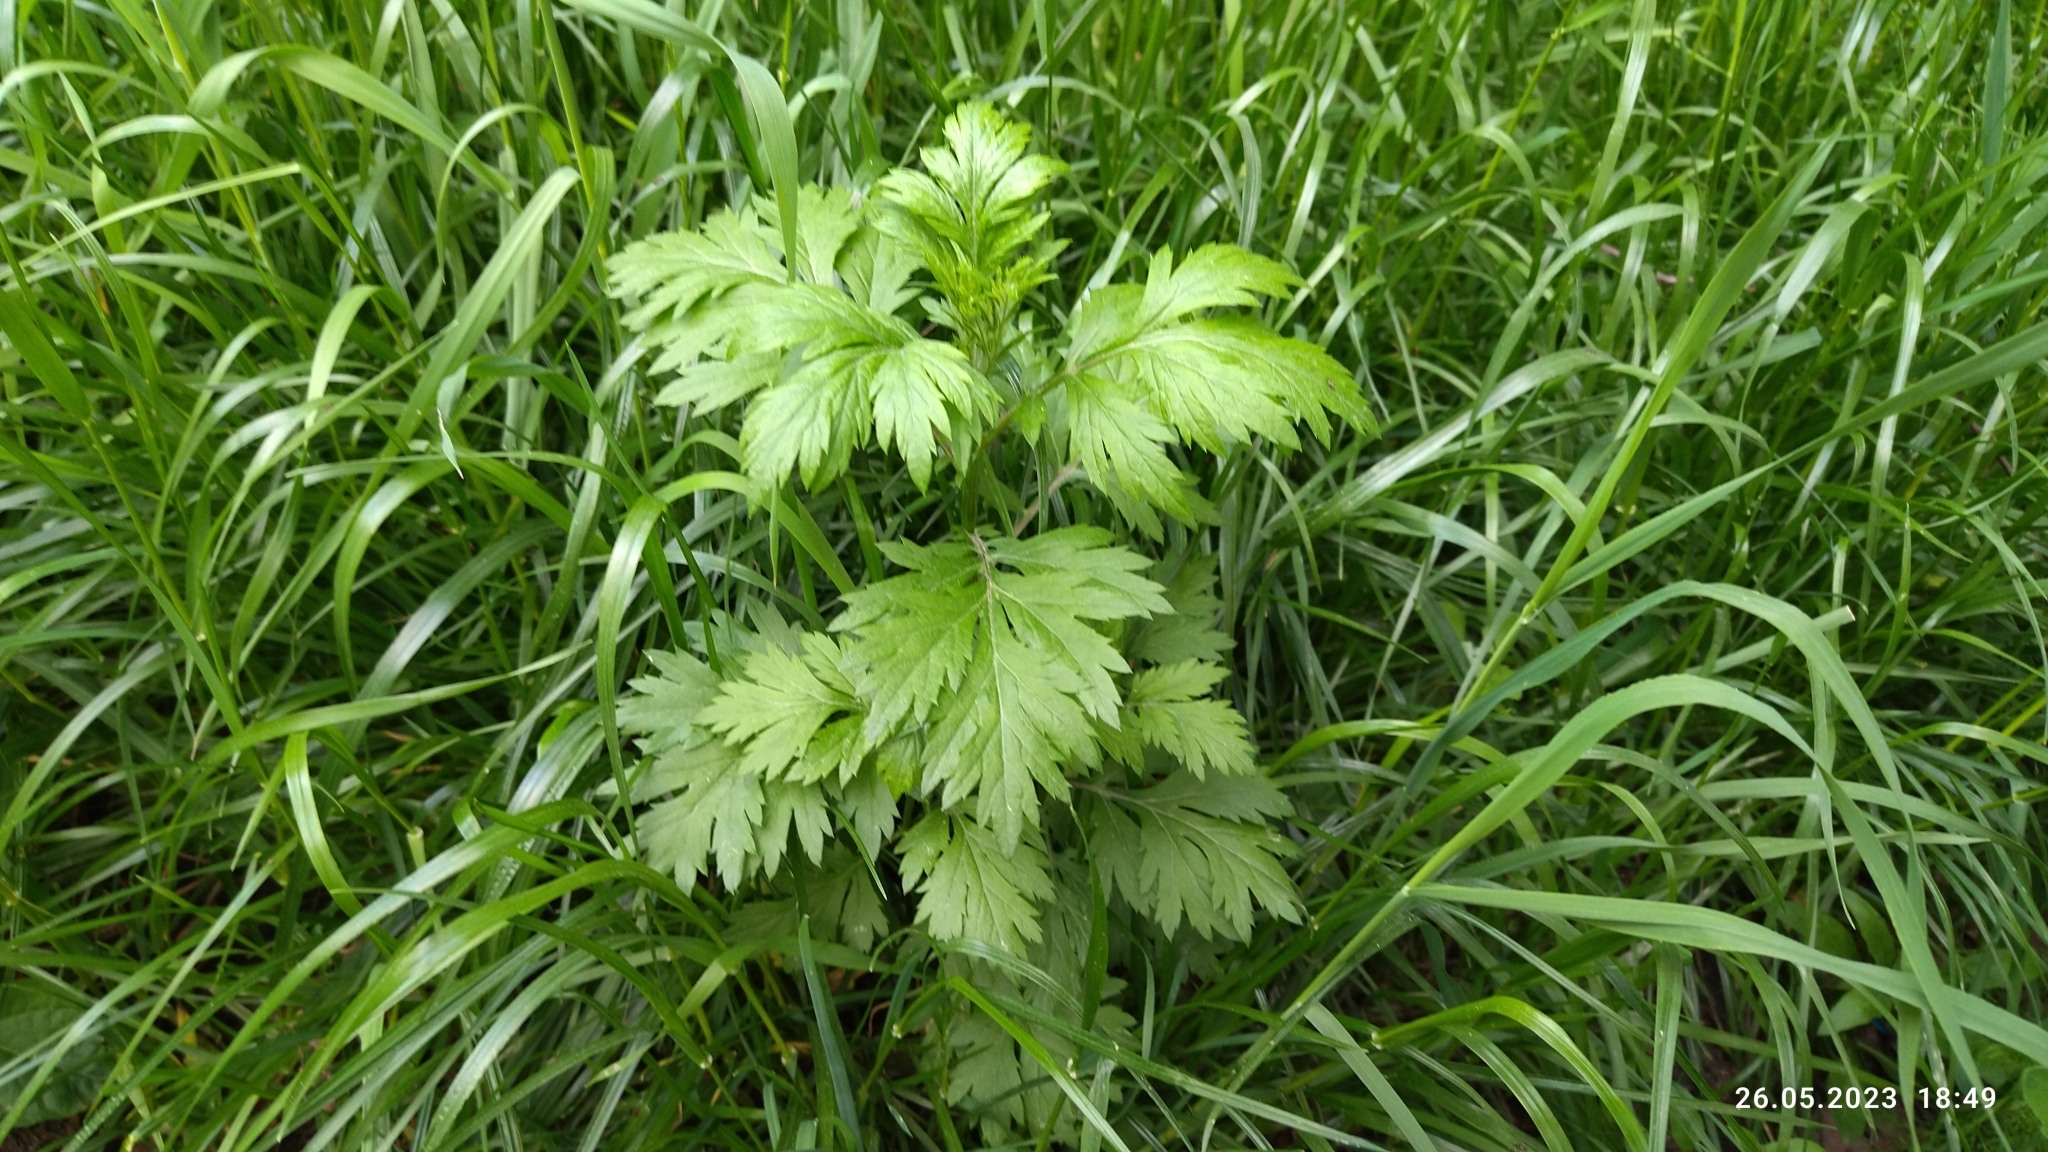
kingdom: Plantae
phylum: Tracheophyta
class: Magnoliopsida
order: Asterales
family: Asteraceae
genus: Artemisia
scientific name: Artemisia vulgaris
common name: Mugwort
